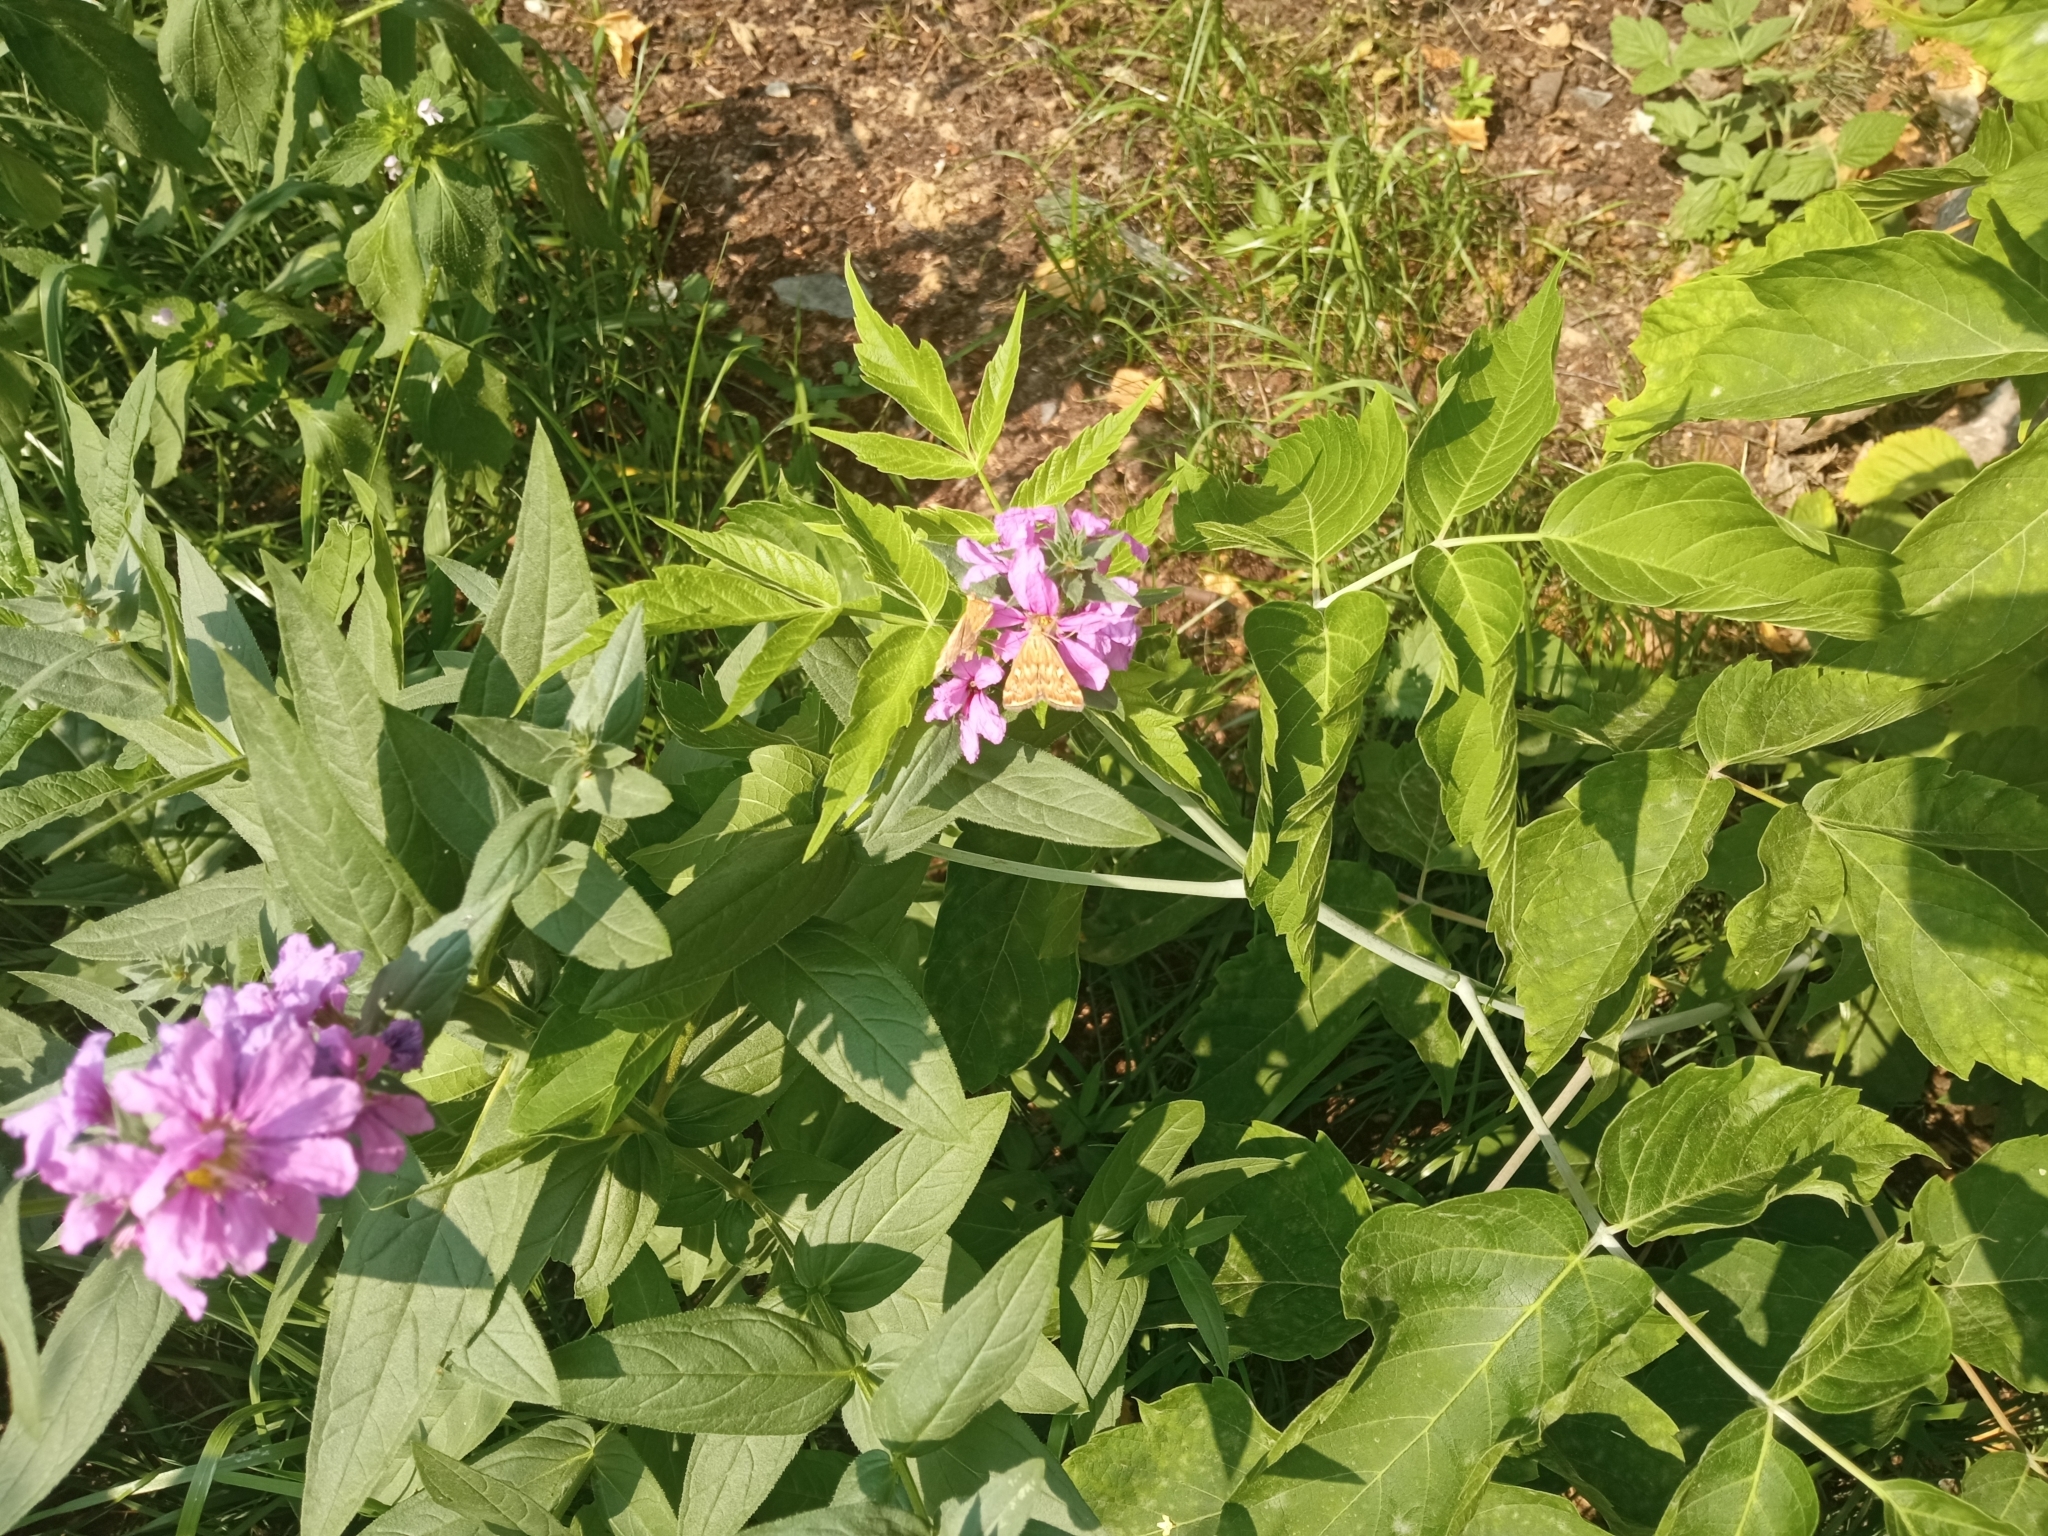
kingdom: Plantae
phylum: Tracheophyta
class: Magnoliopsida
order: Myrtales
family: Lythraceae
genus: Lythrum
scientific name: Lythrum salicaria
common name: Purple loosestrife
